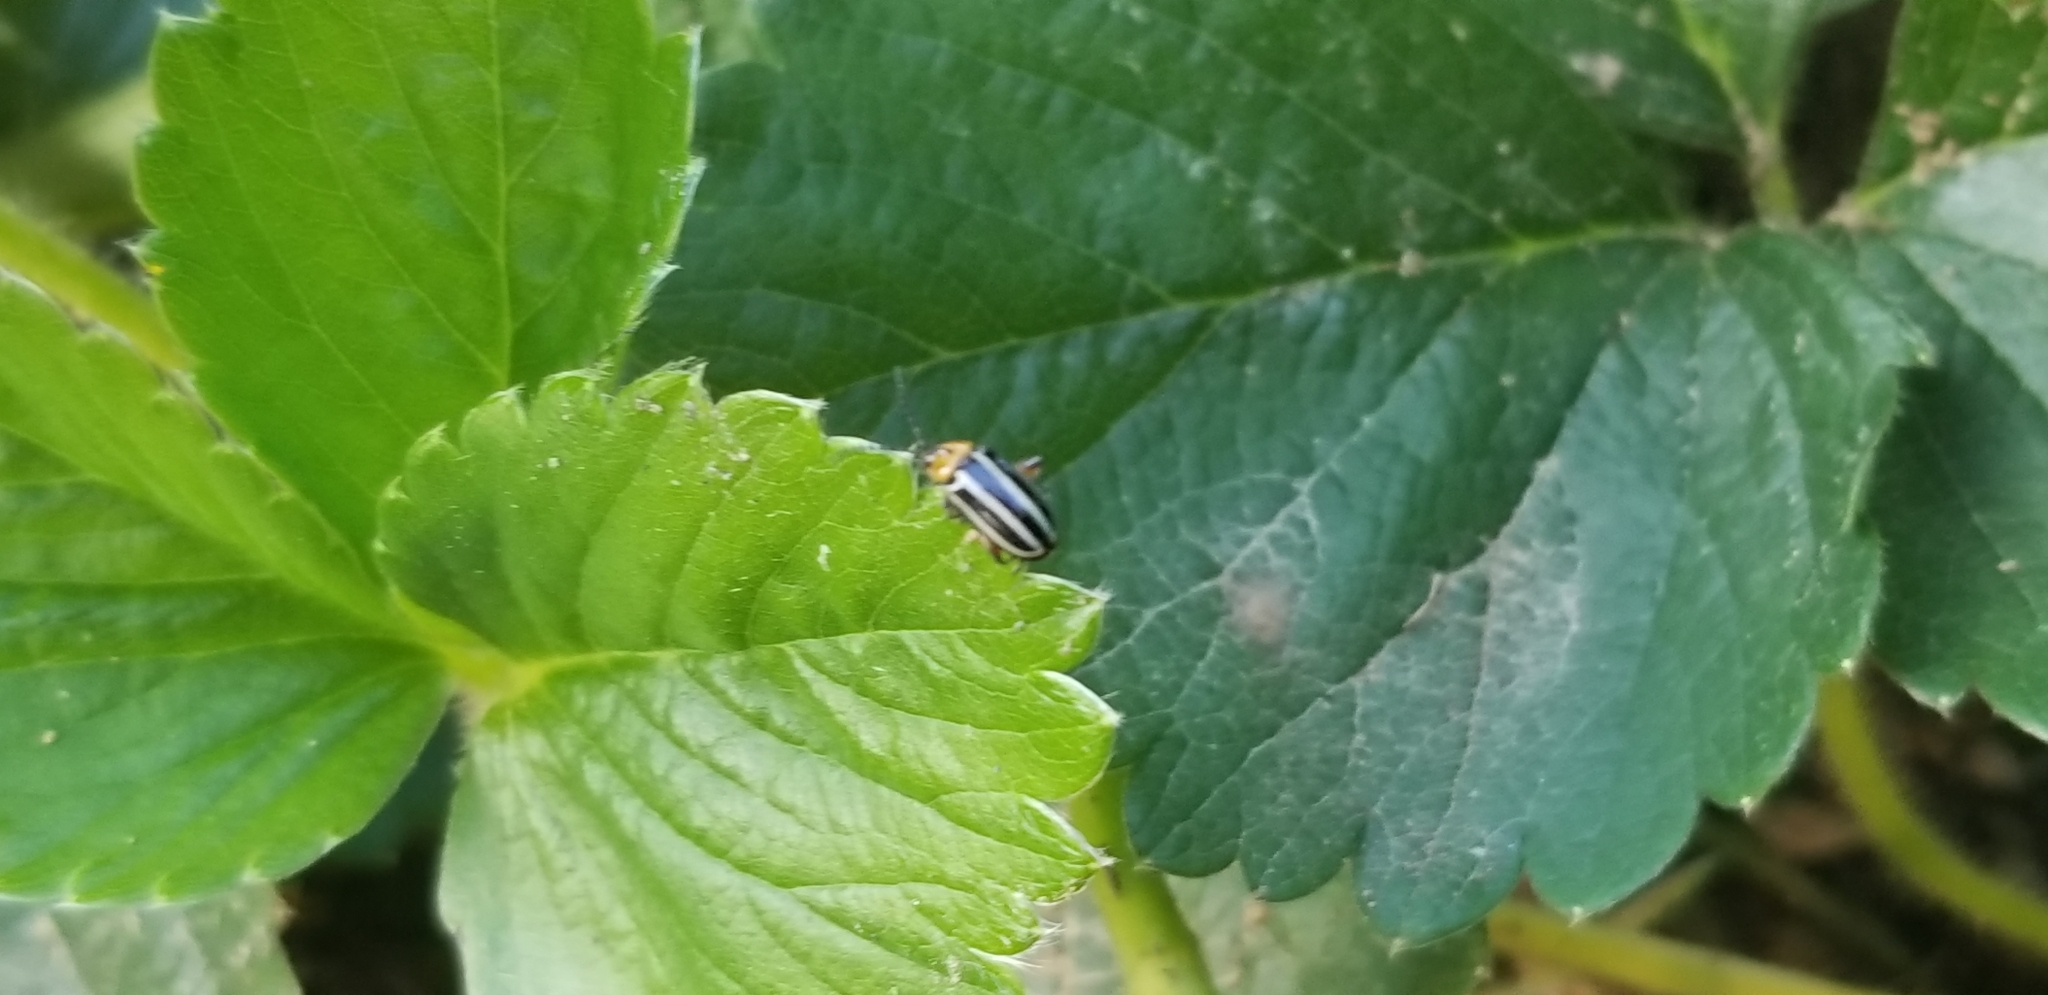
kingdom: Animalia
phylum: Arthropoda
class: Insecta
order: Coleoptera
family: Chrysomelidae
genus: Disonycha
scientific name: Disonycha glabrata
